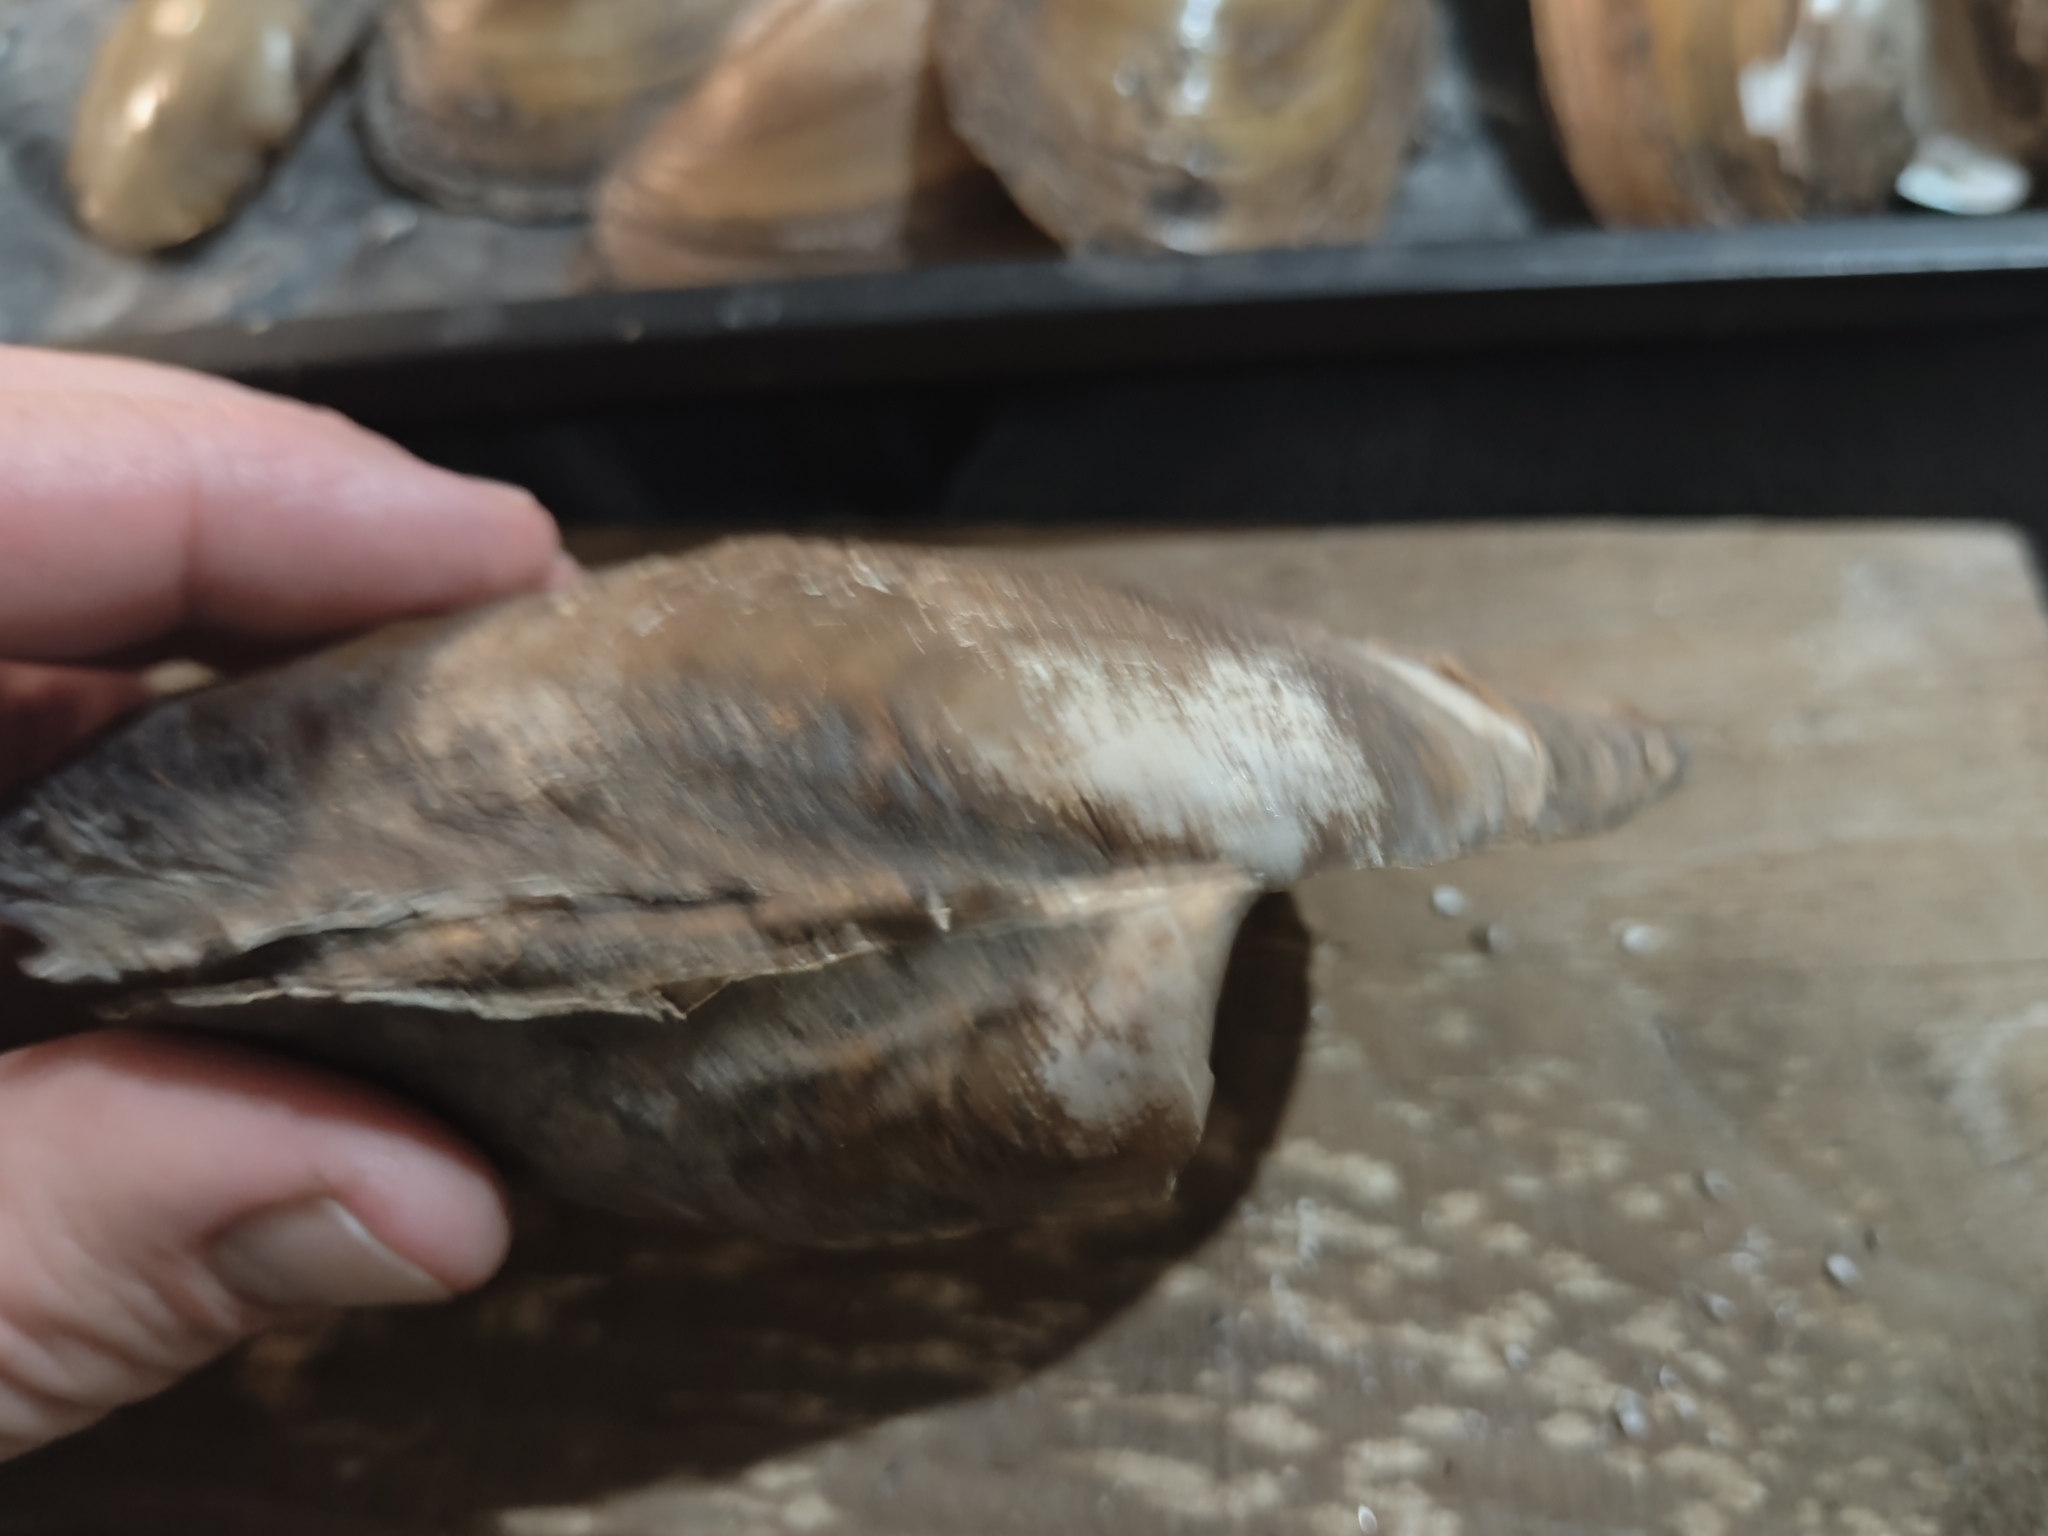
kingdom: Animalia
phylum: Mollusca
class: Bivalvia
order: Unionida
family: Unionidae
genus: Potamilus
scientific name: Potamilus fragilis
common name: Fragile papershell
